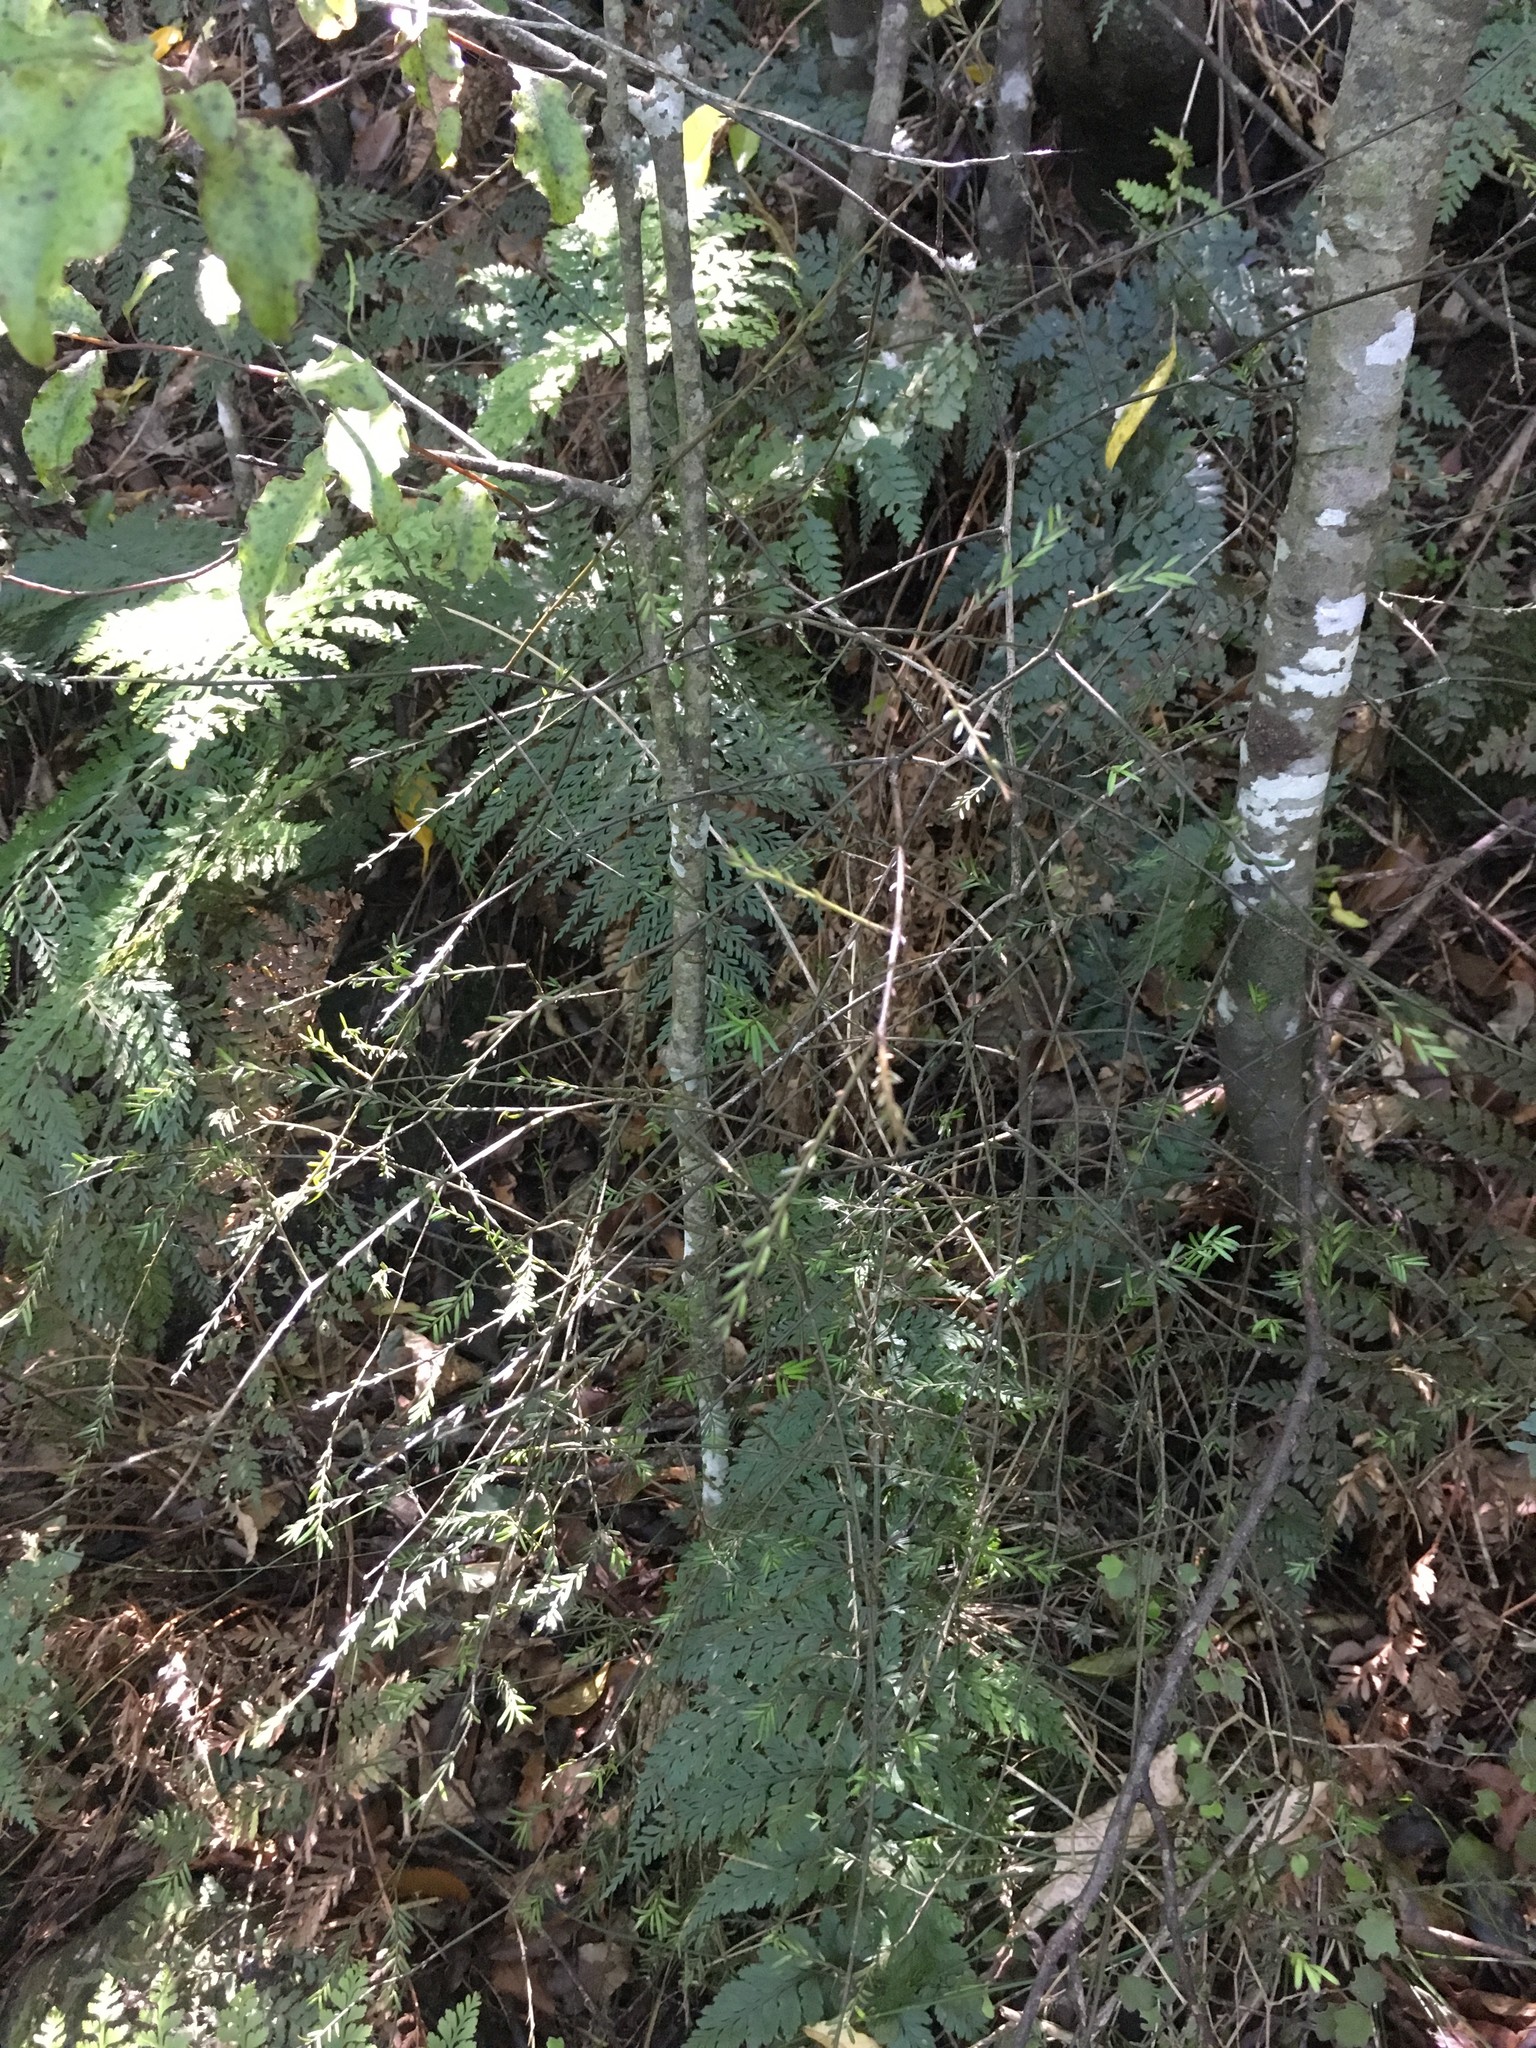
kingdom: Plantae
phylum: Tracheophyta
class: Pinopsida
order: Pinales
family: Podocarpaceae
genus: Prumnopitys
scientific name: Prumnopitys taxifolia
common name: Matai
